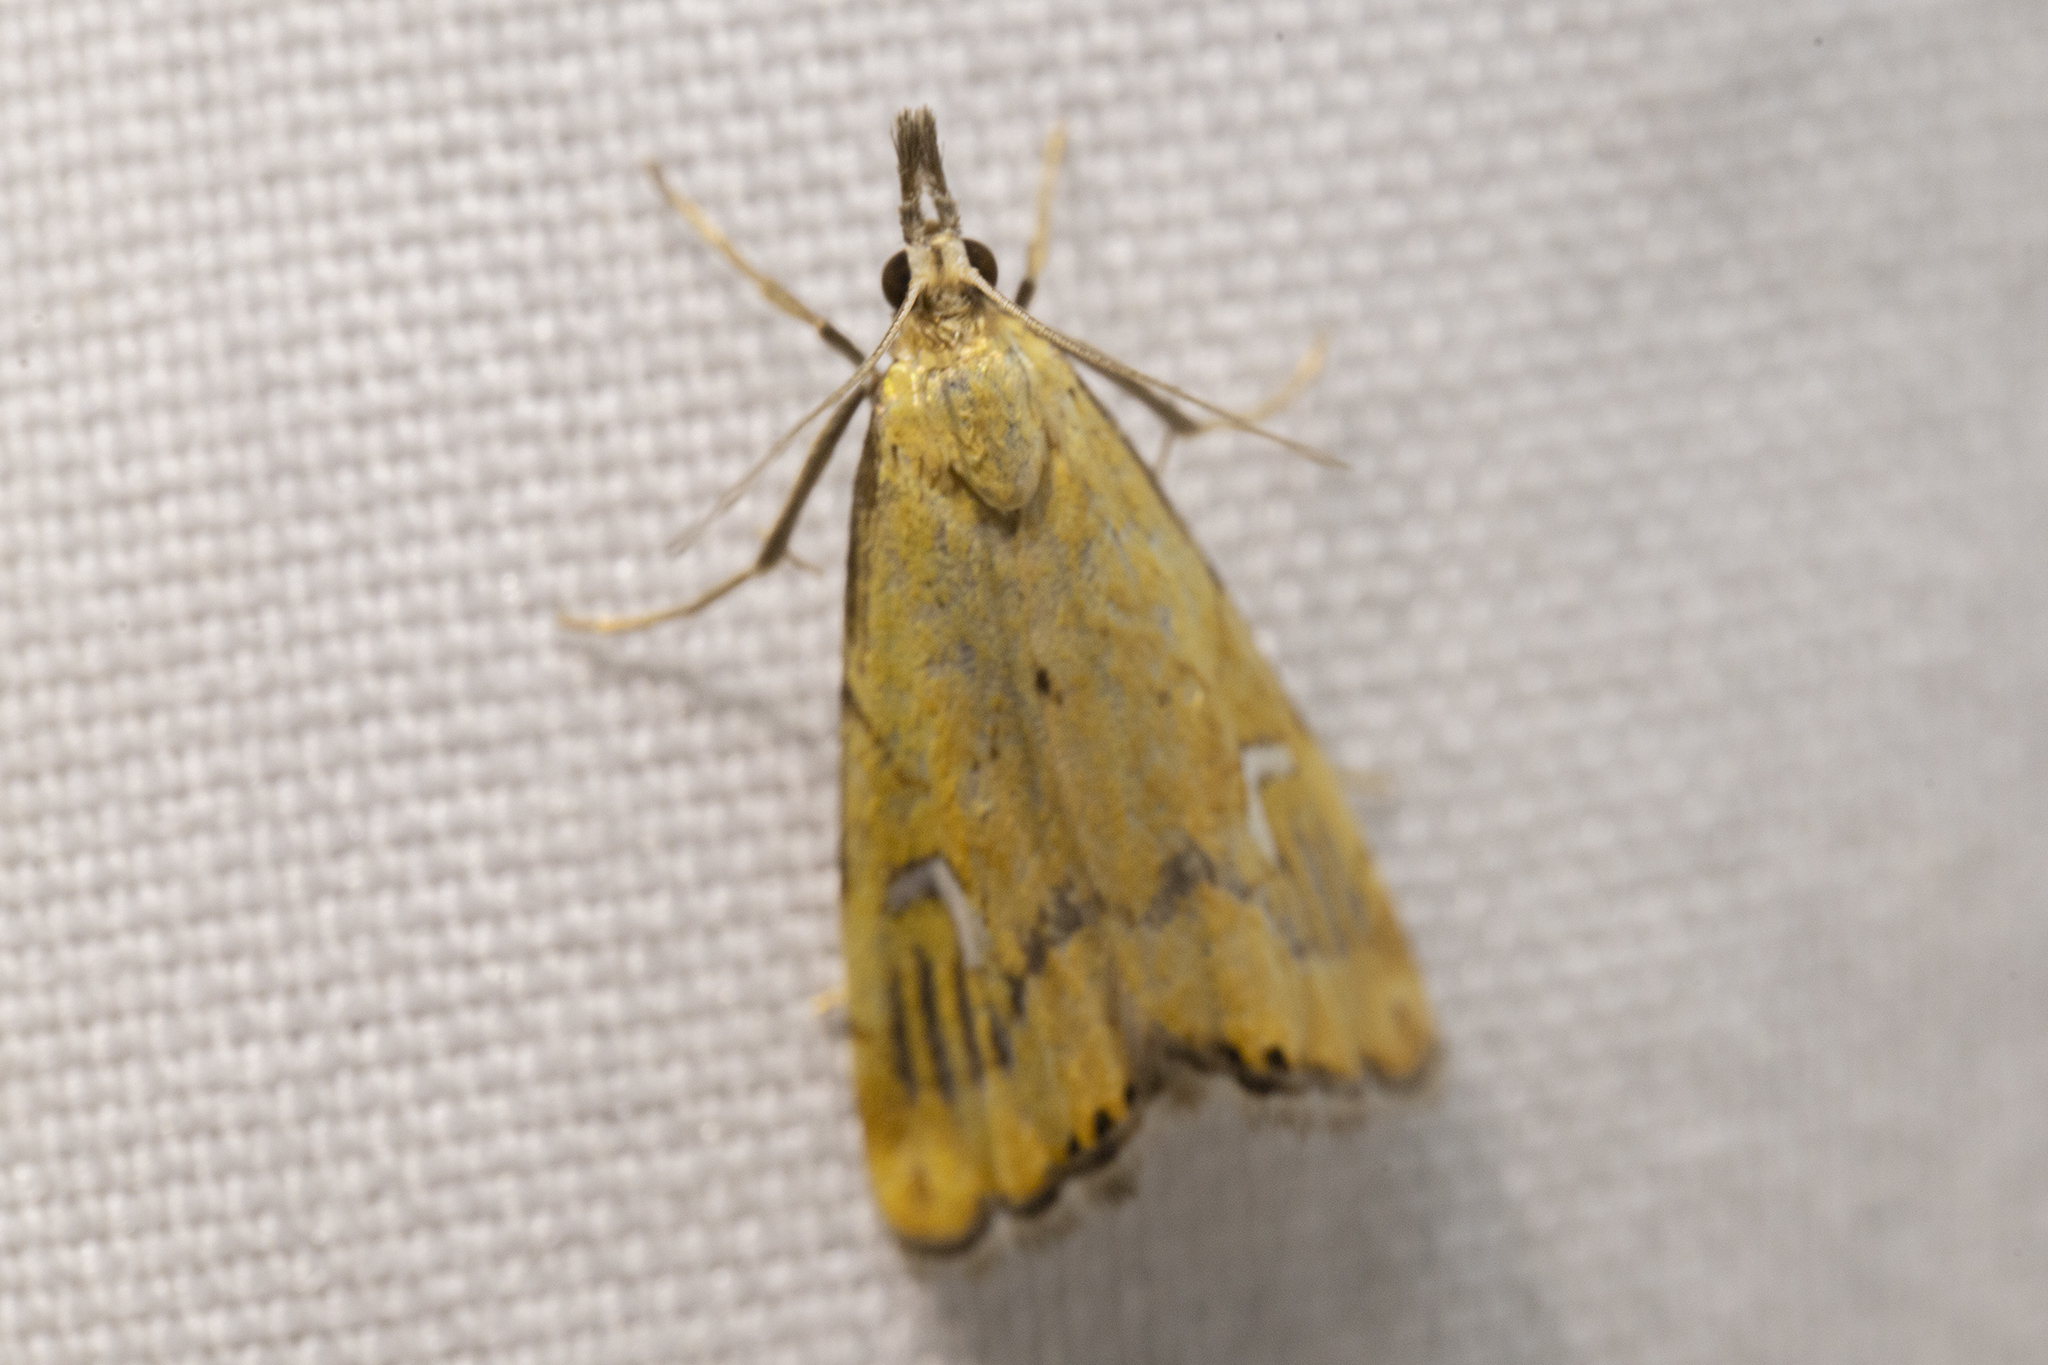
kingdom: Animalia
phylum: Arthropoda
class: Insecta
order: Lepidoptera
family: Crambidae
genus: Glaucocharis
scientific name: Glaucocharis lepidella
